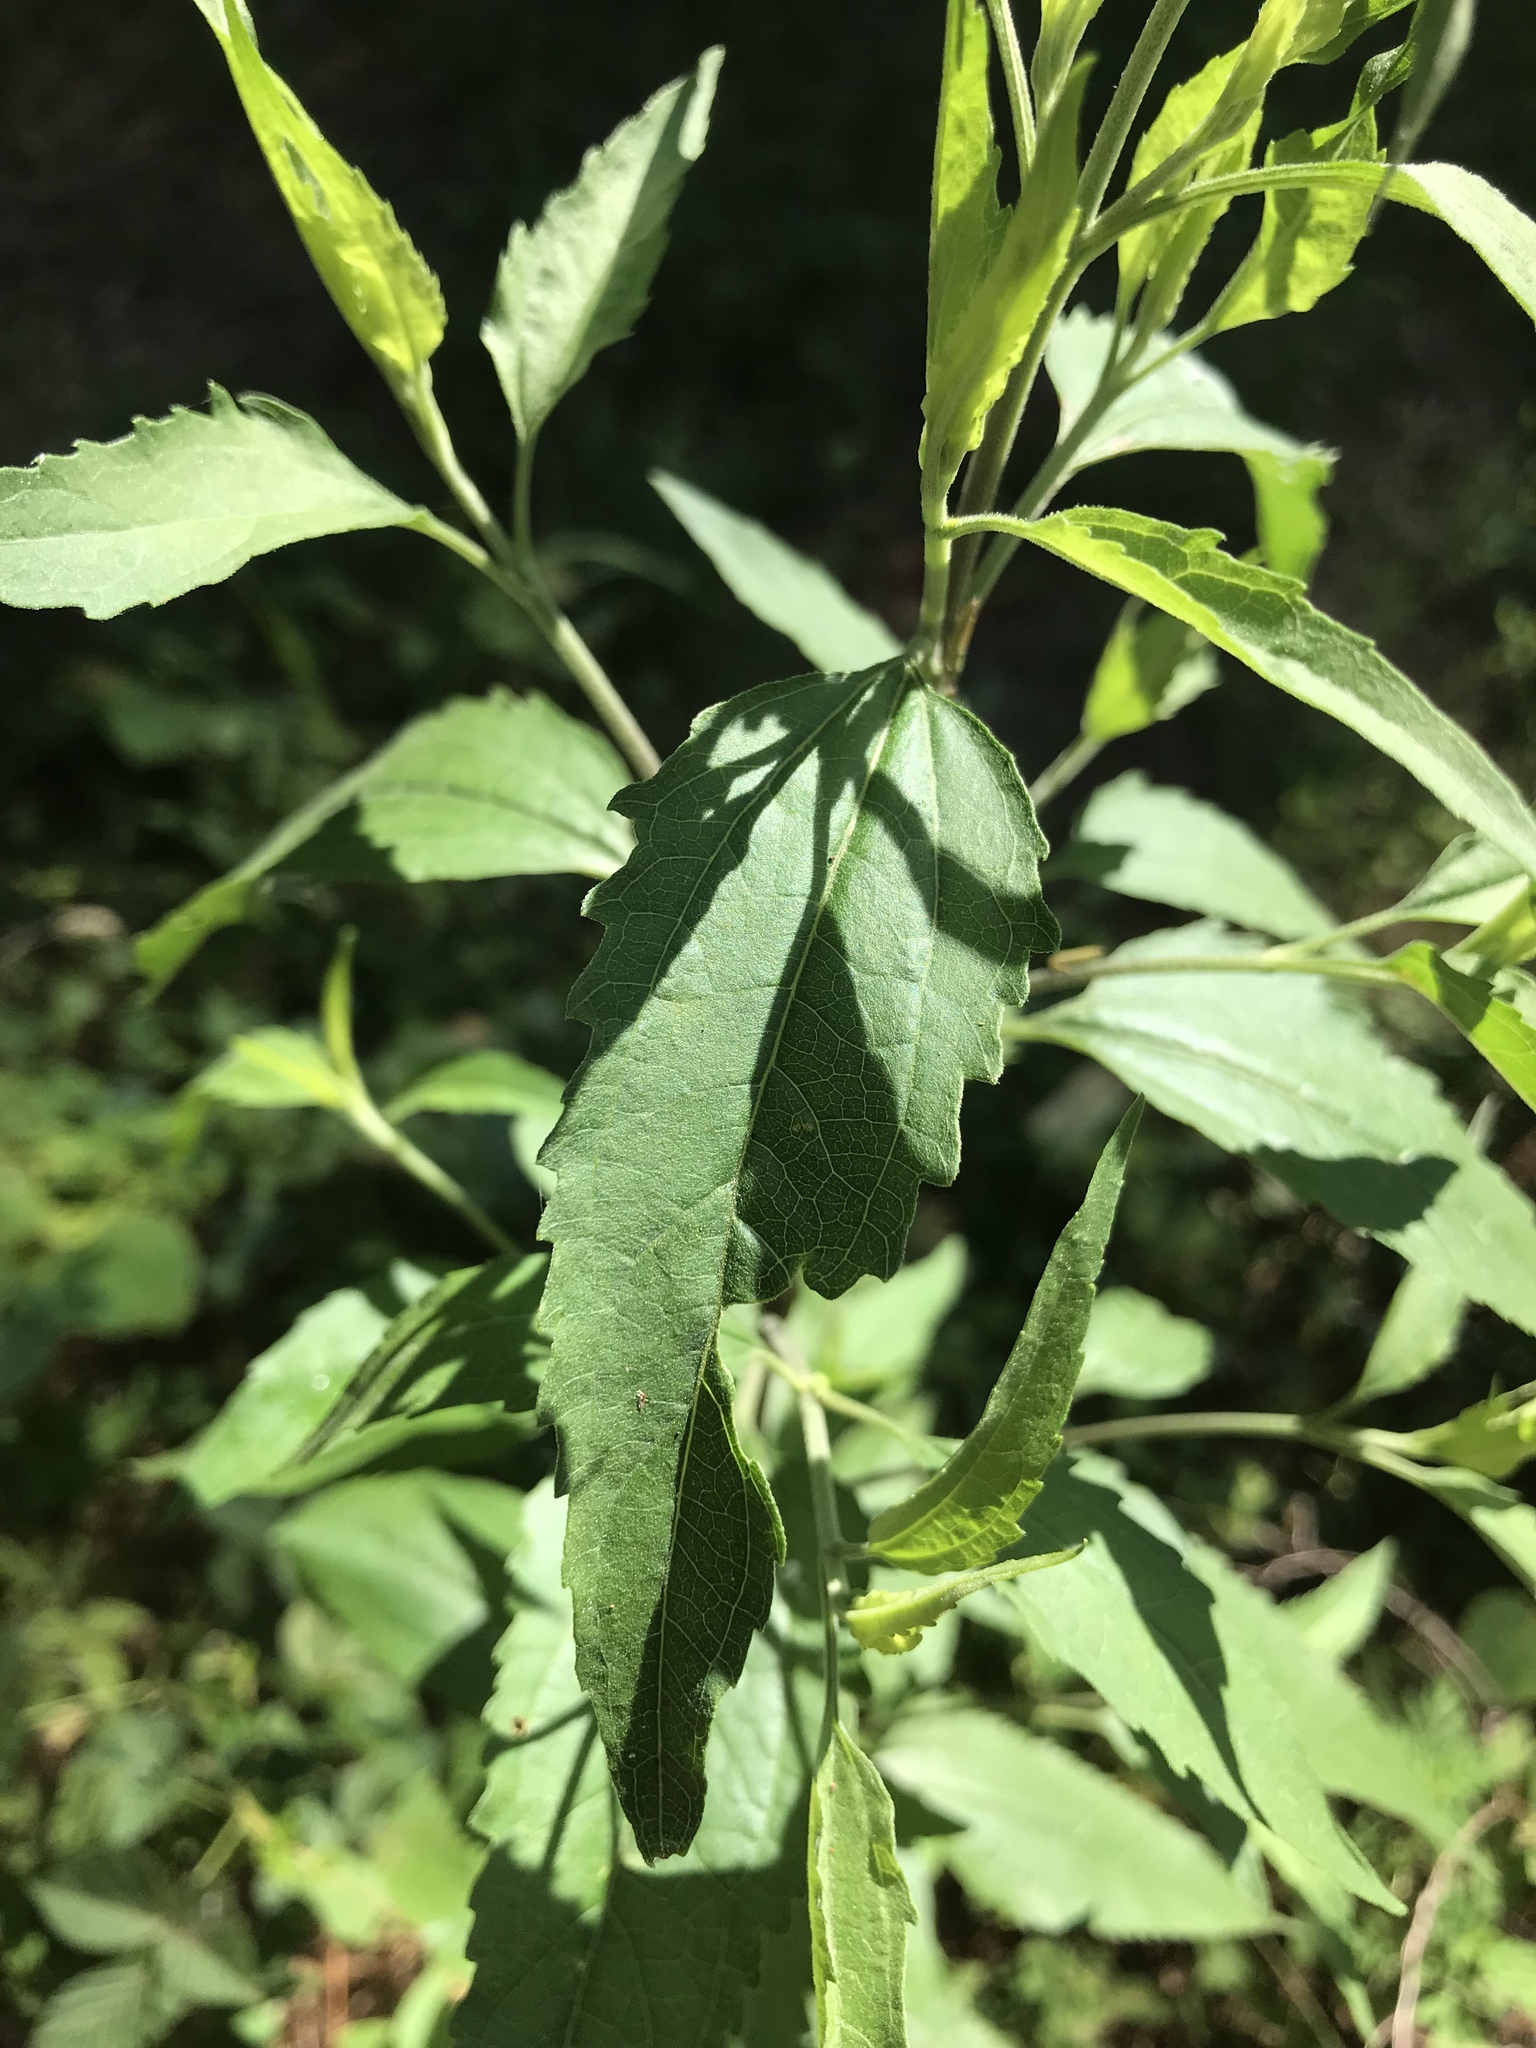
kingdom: Plantae
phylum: Tracheophyta
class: Magnoliopsida
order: Asterales
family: Asteraceae
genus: Eupatorium
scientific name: Eupatorium serotinum
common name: Late boneset
